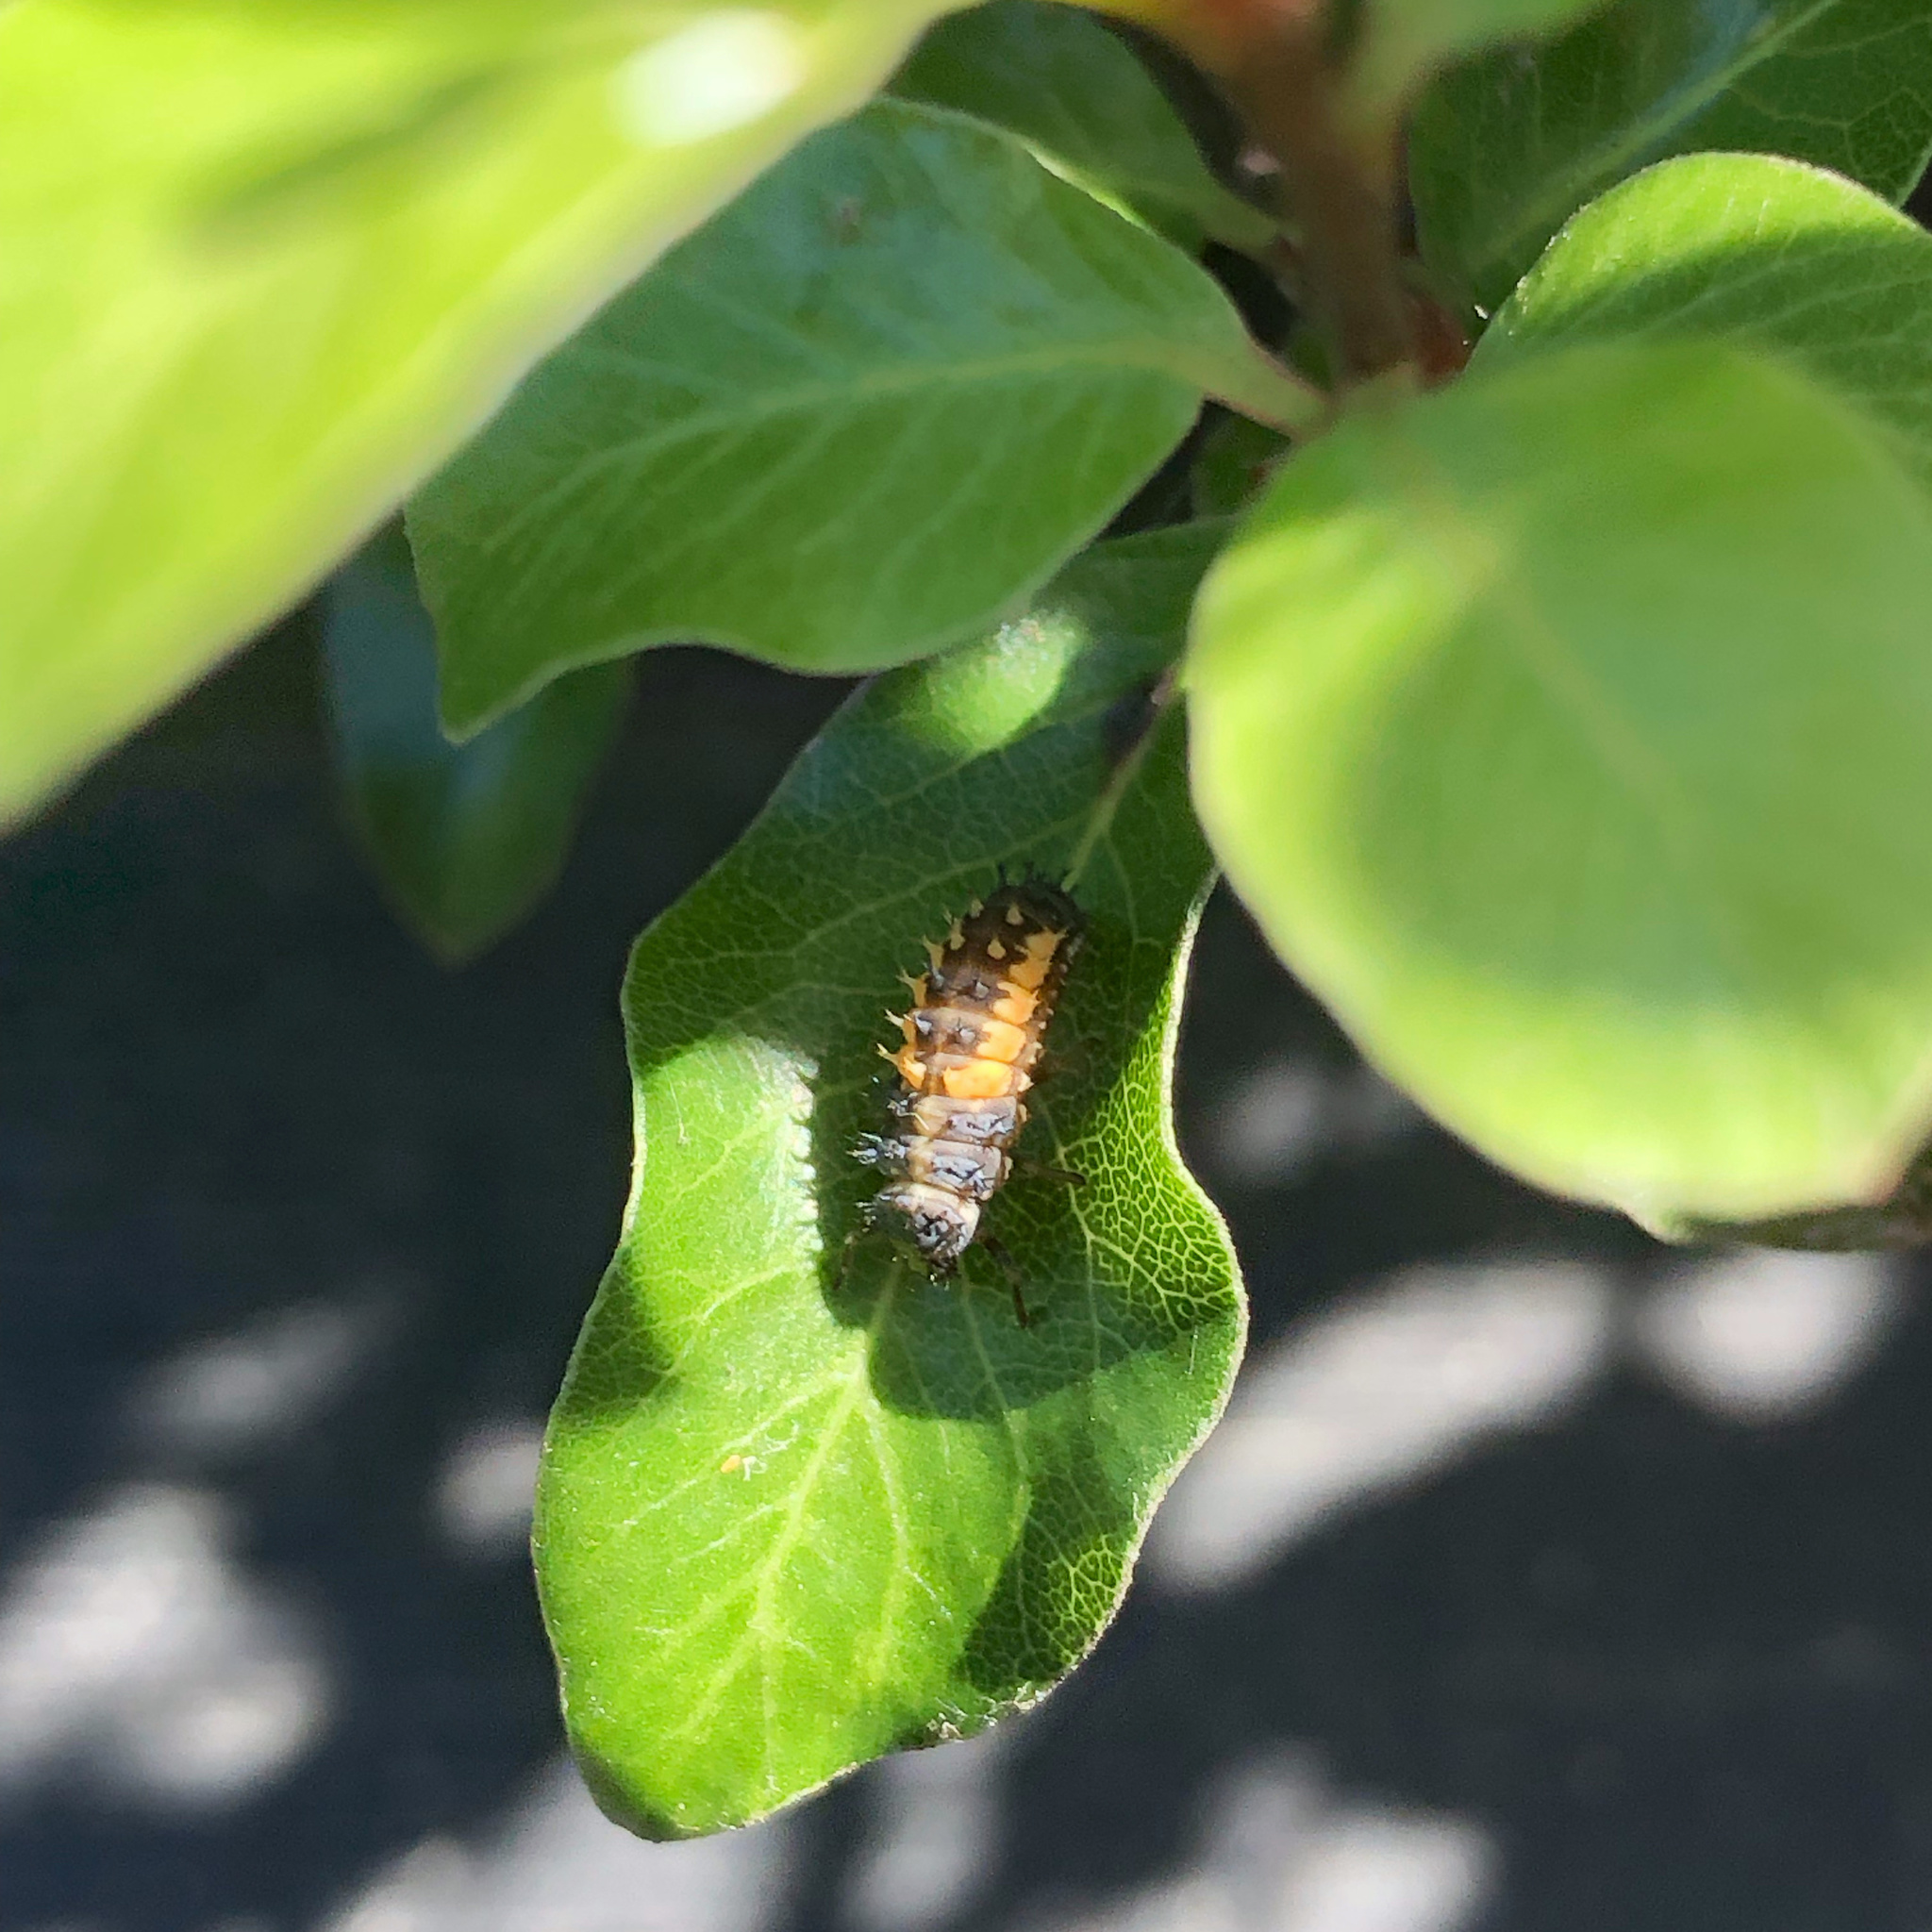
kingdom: Animalia
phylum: Arthropoda
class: Insecta
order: Coleoptera
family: Coccinellidae
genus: Harmonia
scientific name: Harmonia axyridis
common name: Harlequin ladybird
